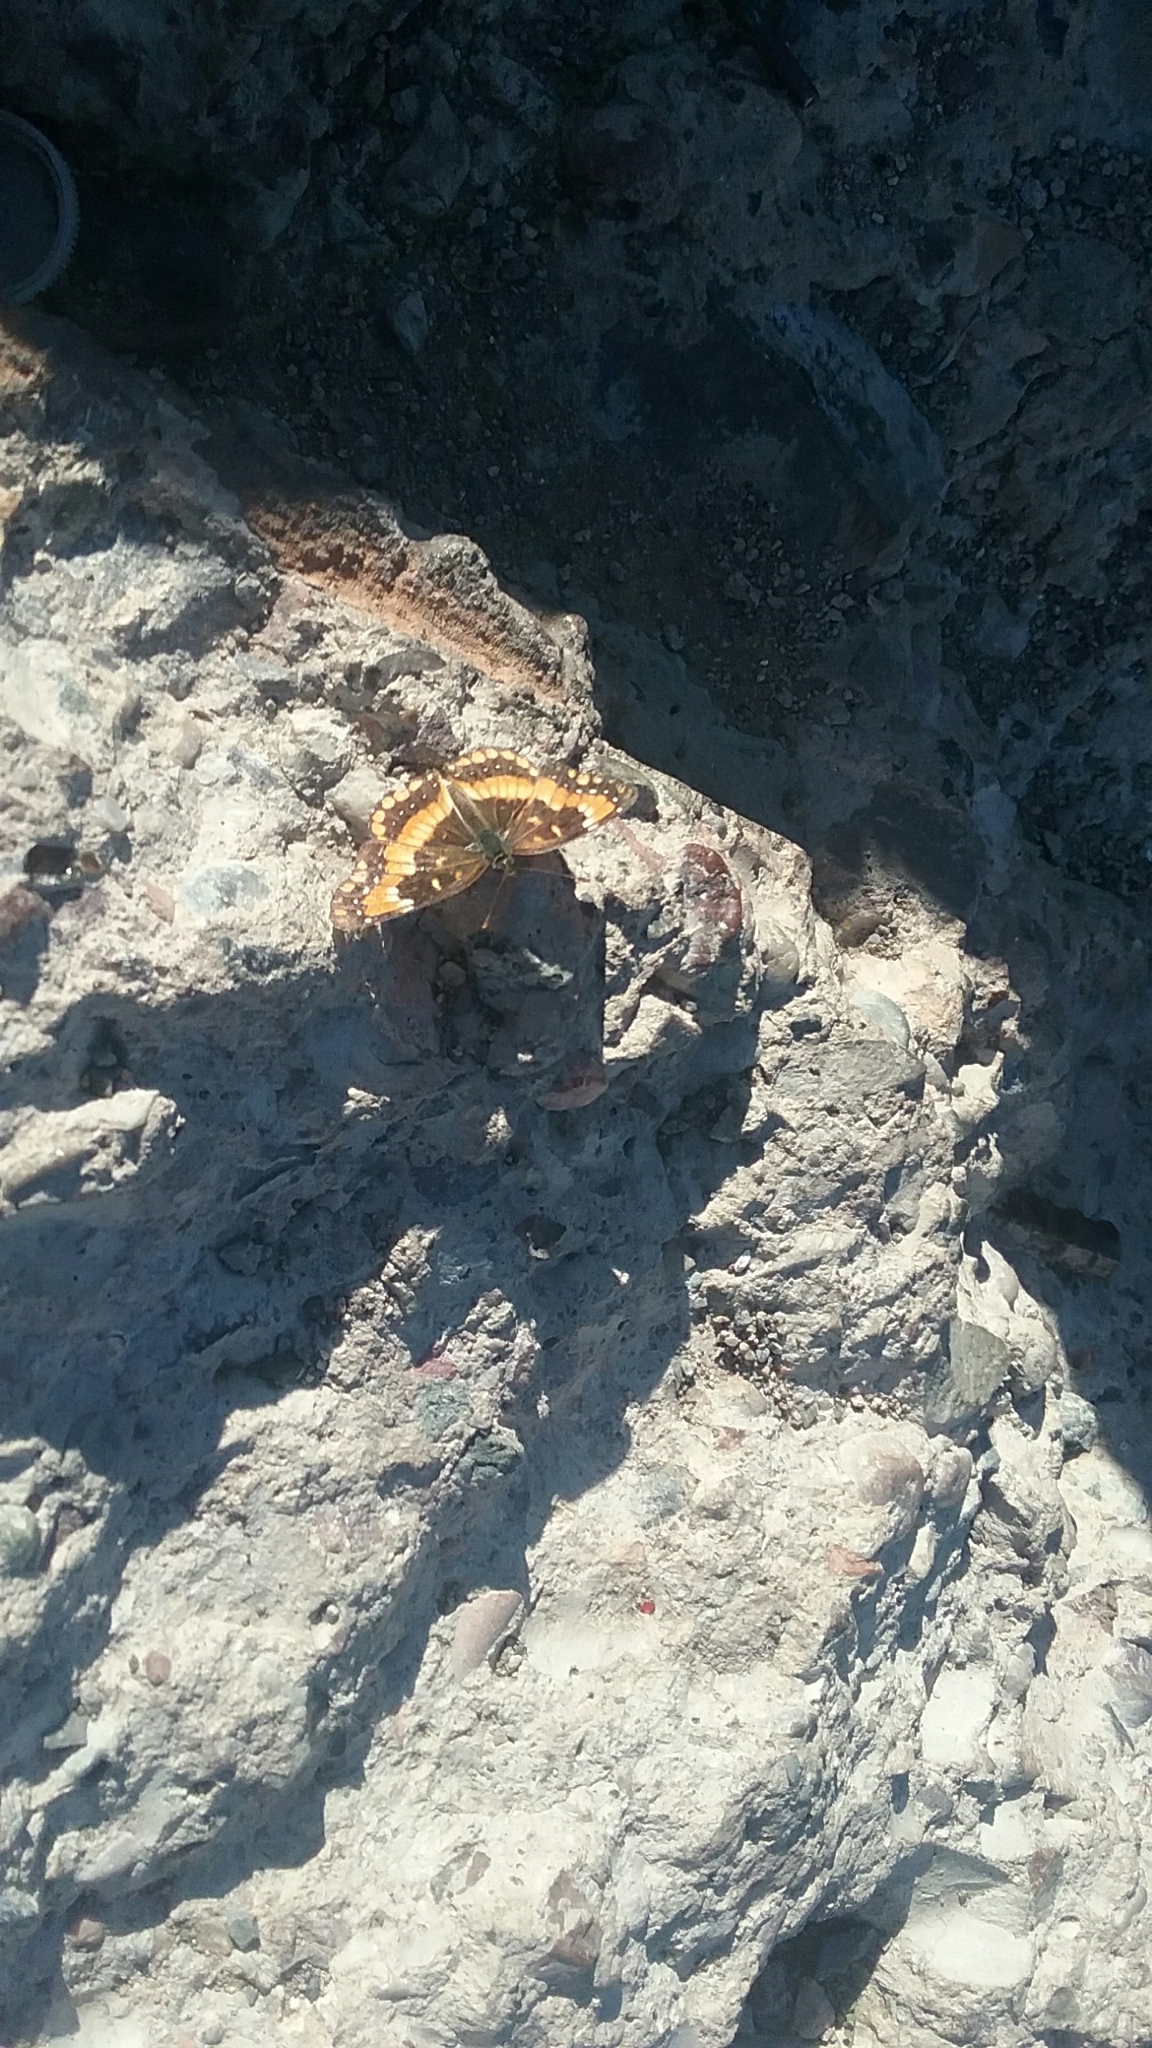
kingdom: Animalia
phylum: Arthropoda
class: Insecta
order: Lepidoptera
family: Nymphalidae
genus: Chlosyne
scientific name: Chlosyne californica
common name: California patch
